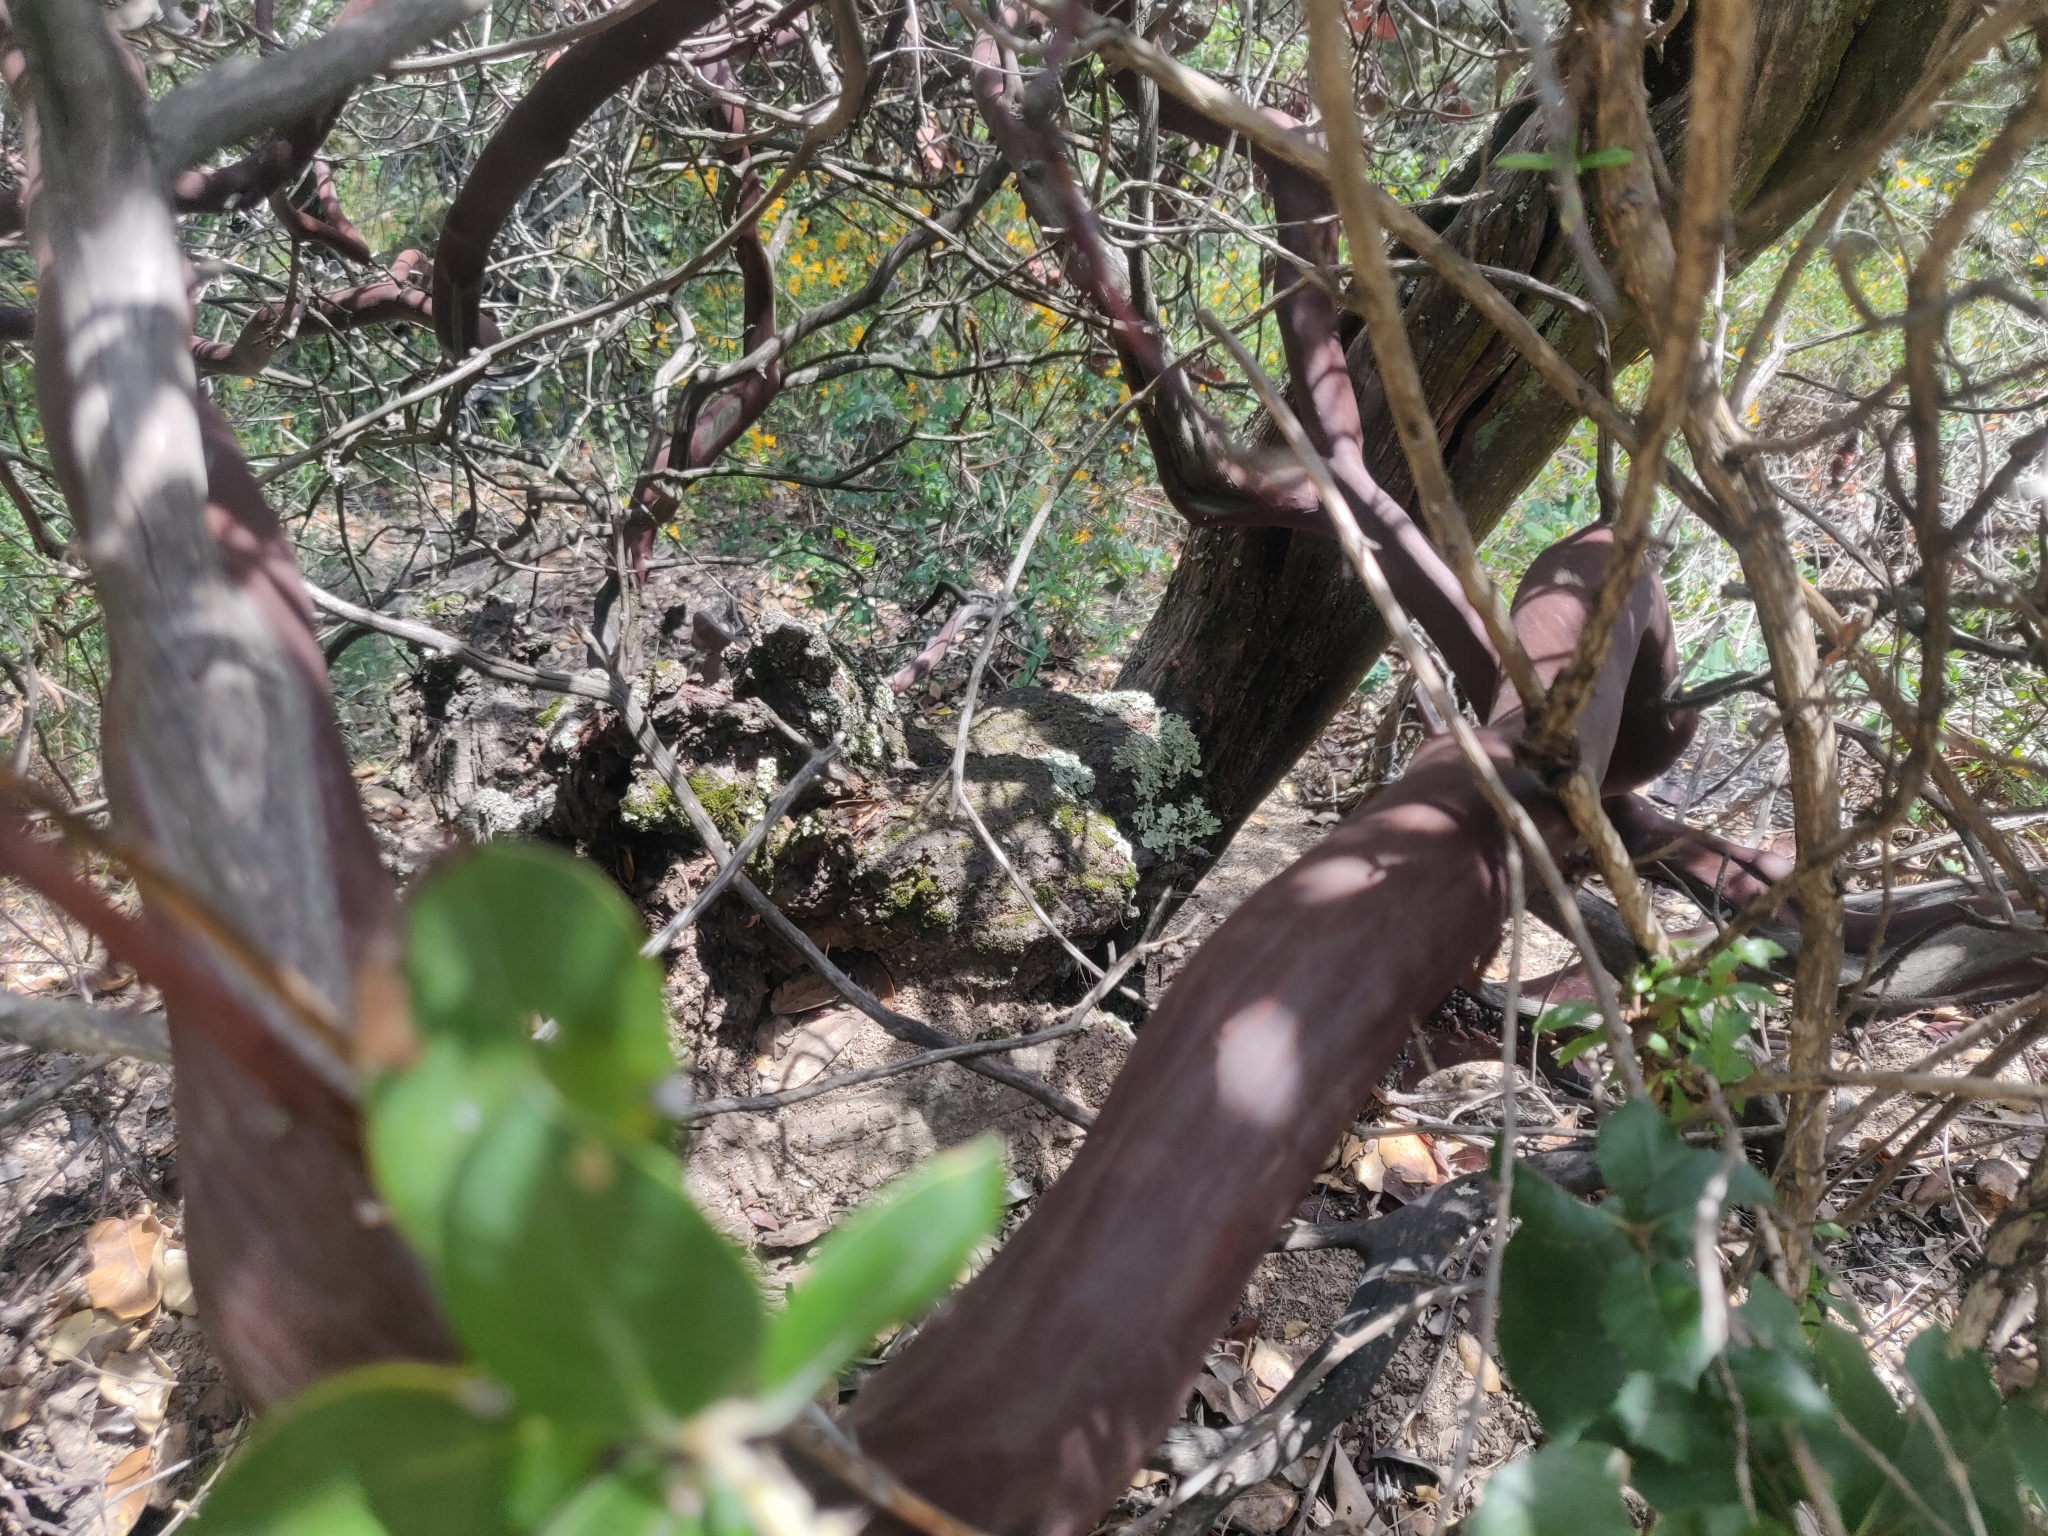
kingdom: Plantae
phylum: Tracheophyta
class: Magnoliopsida
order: Ericales
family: Ericaceae
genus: Arctostaphylos
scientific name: Arctostaphylos crustacea
